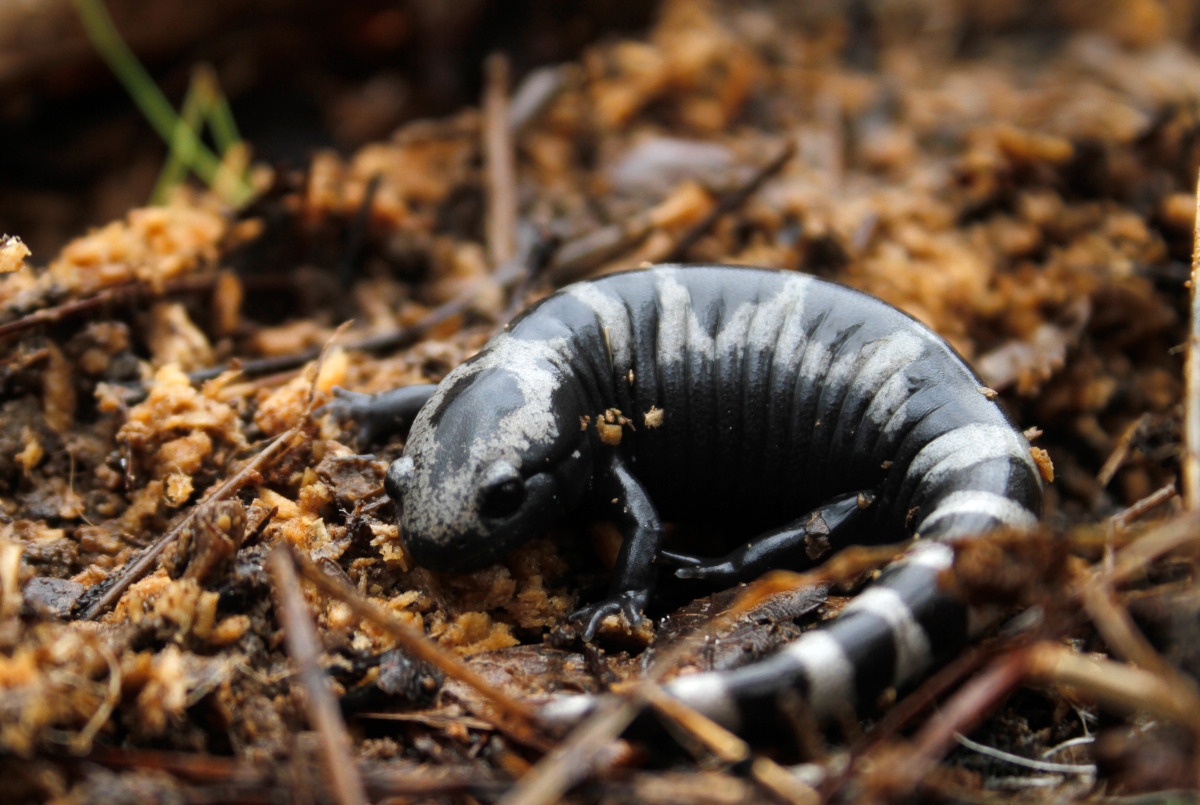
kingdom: Animalia
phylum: Chordata
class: Amphibia
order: Caudata
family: Ambystomatidae
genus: Ambystoma
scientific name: Ambystoma opacum
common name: Marbled salamander
